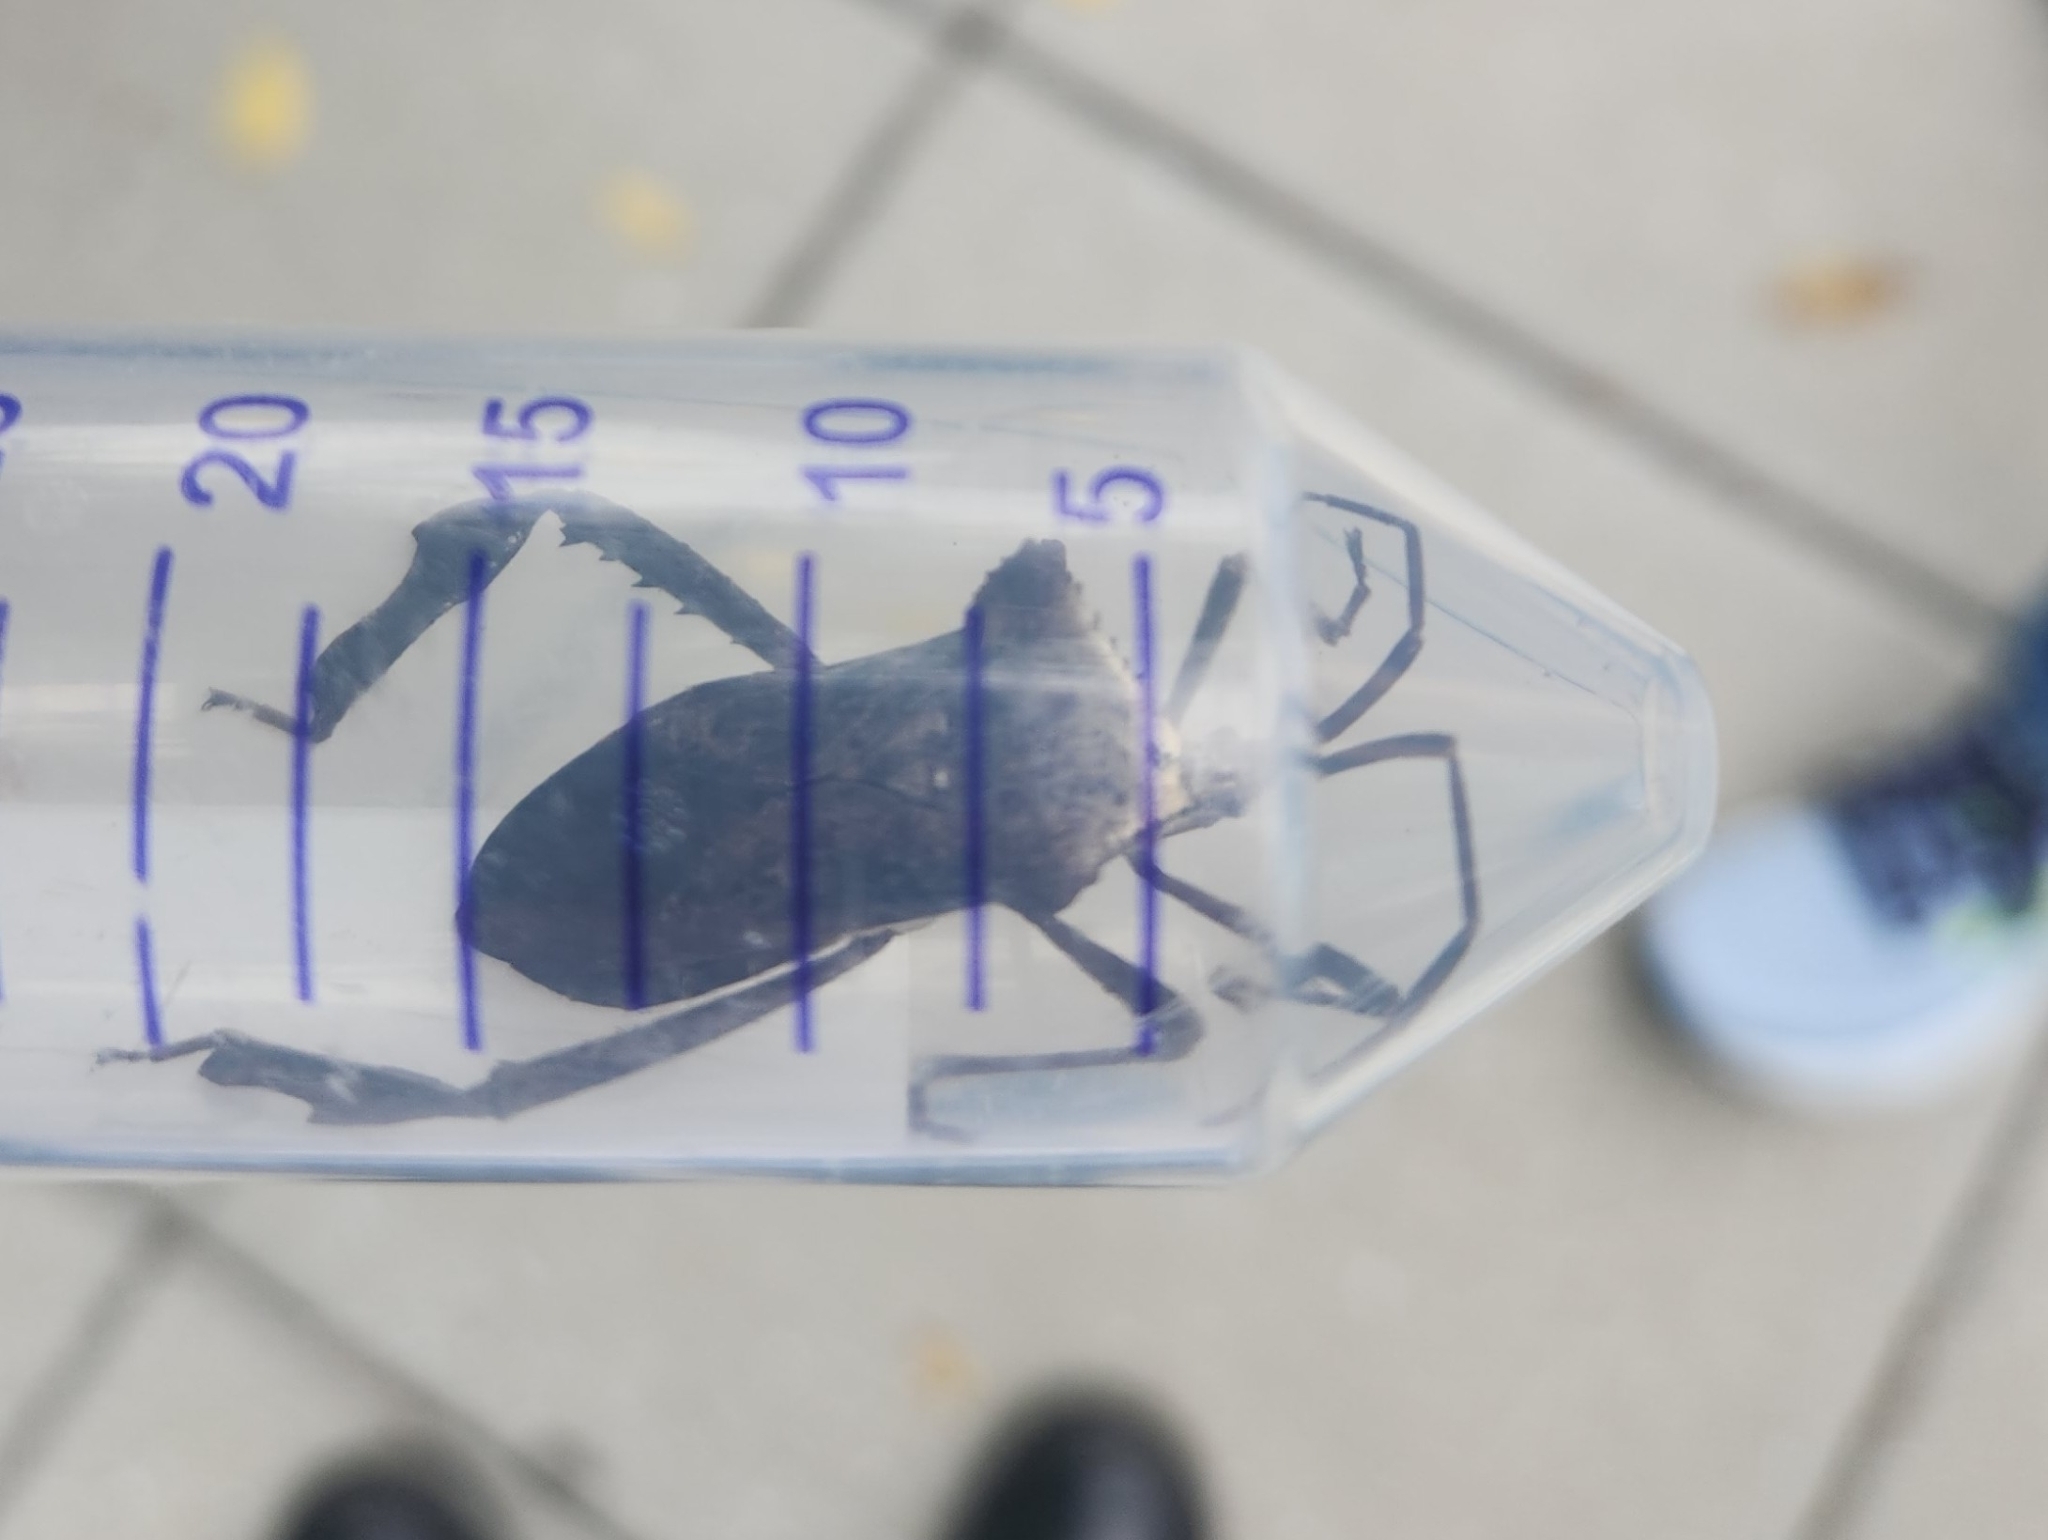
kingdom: Animalia
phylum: Arthropoda
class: Insecta
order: Hemiptera
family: Coreidae
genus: Acanthocephala
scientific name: Acanthocephala declivis
